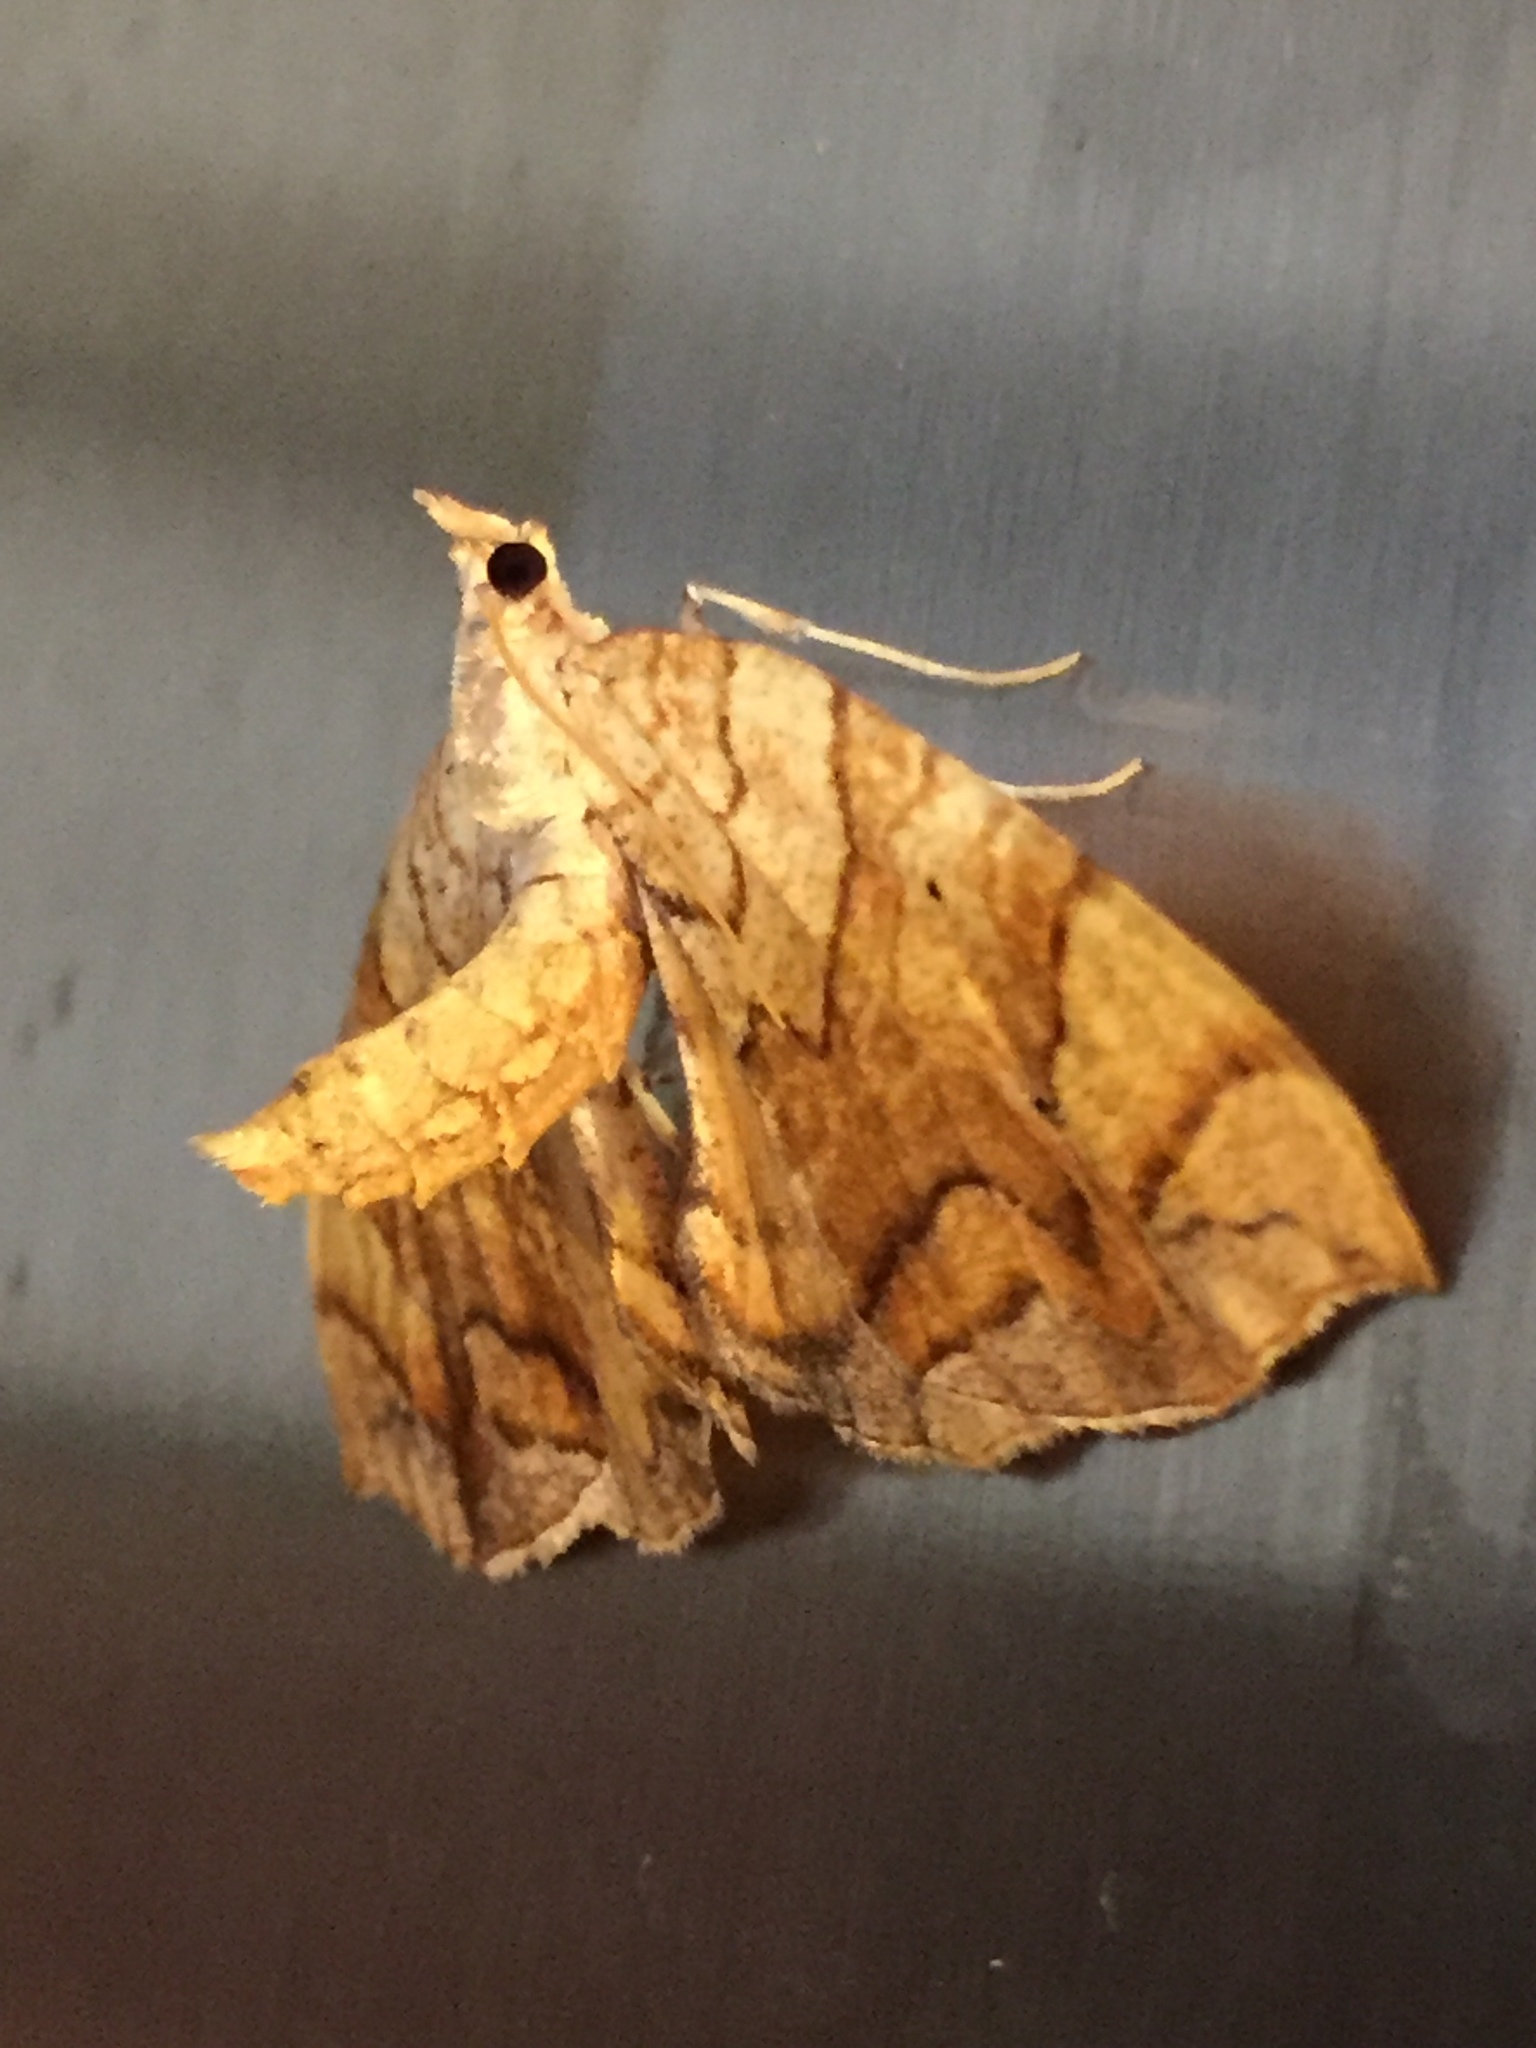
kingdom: Animalia
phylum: Arthropoda
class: Insecta
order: Lepidoptera
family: Geometridae
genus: Eulithis
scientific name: Eulithis
